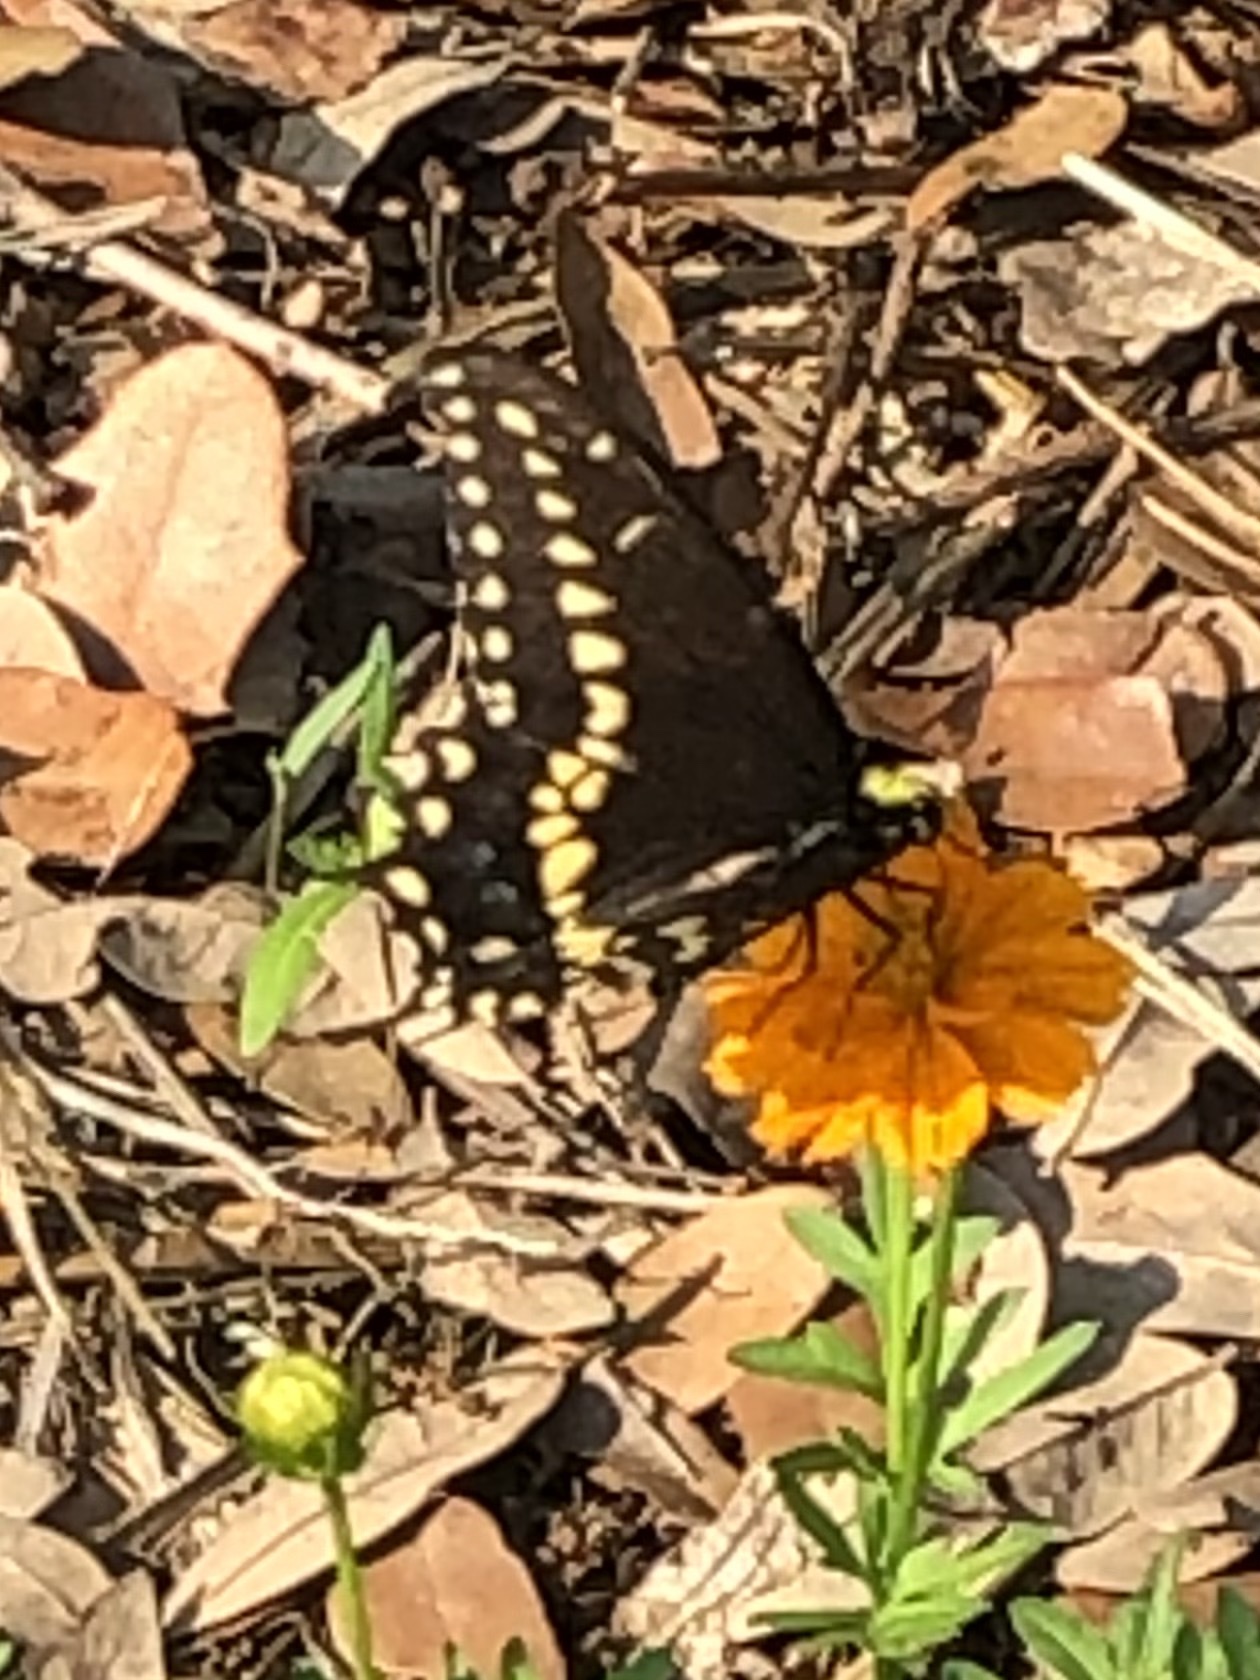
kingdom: Animalia
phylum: Arthropoda
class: Insecta
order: Lepidoptera
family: Papilionidae
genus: Papilio
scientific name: Papilio polyxenes
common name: Black swallowtail
